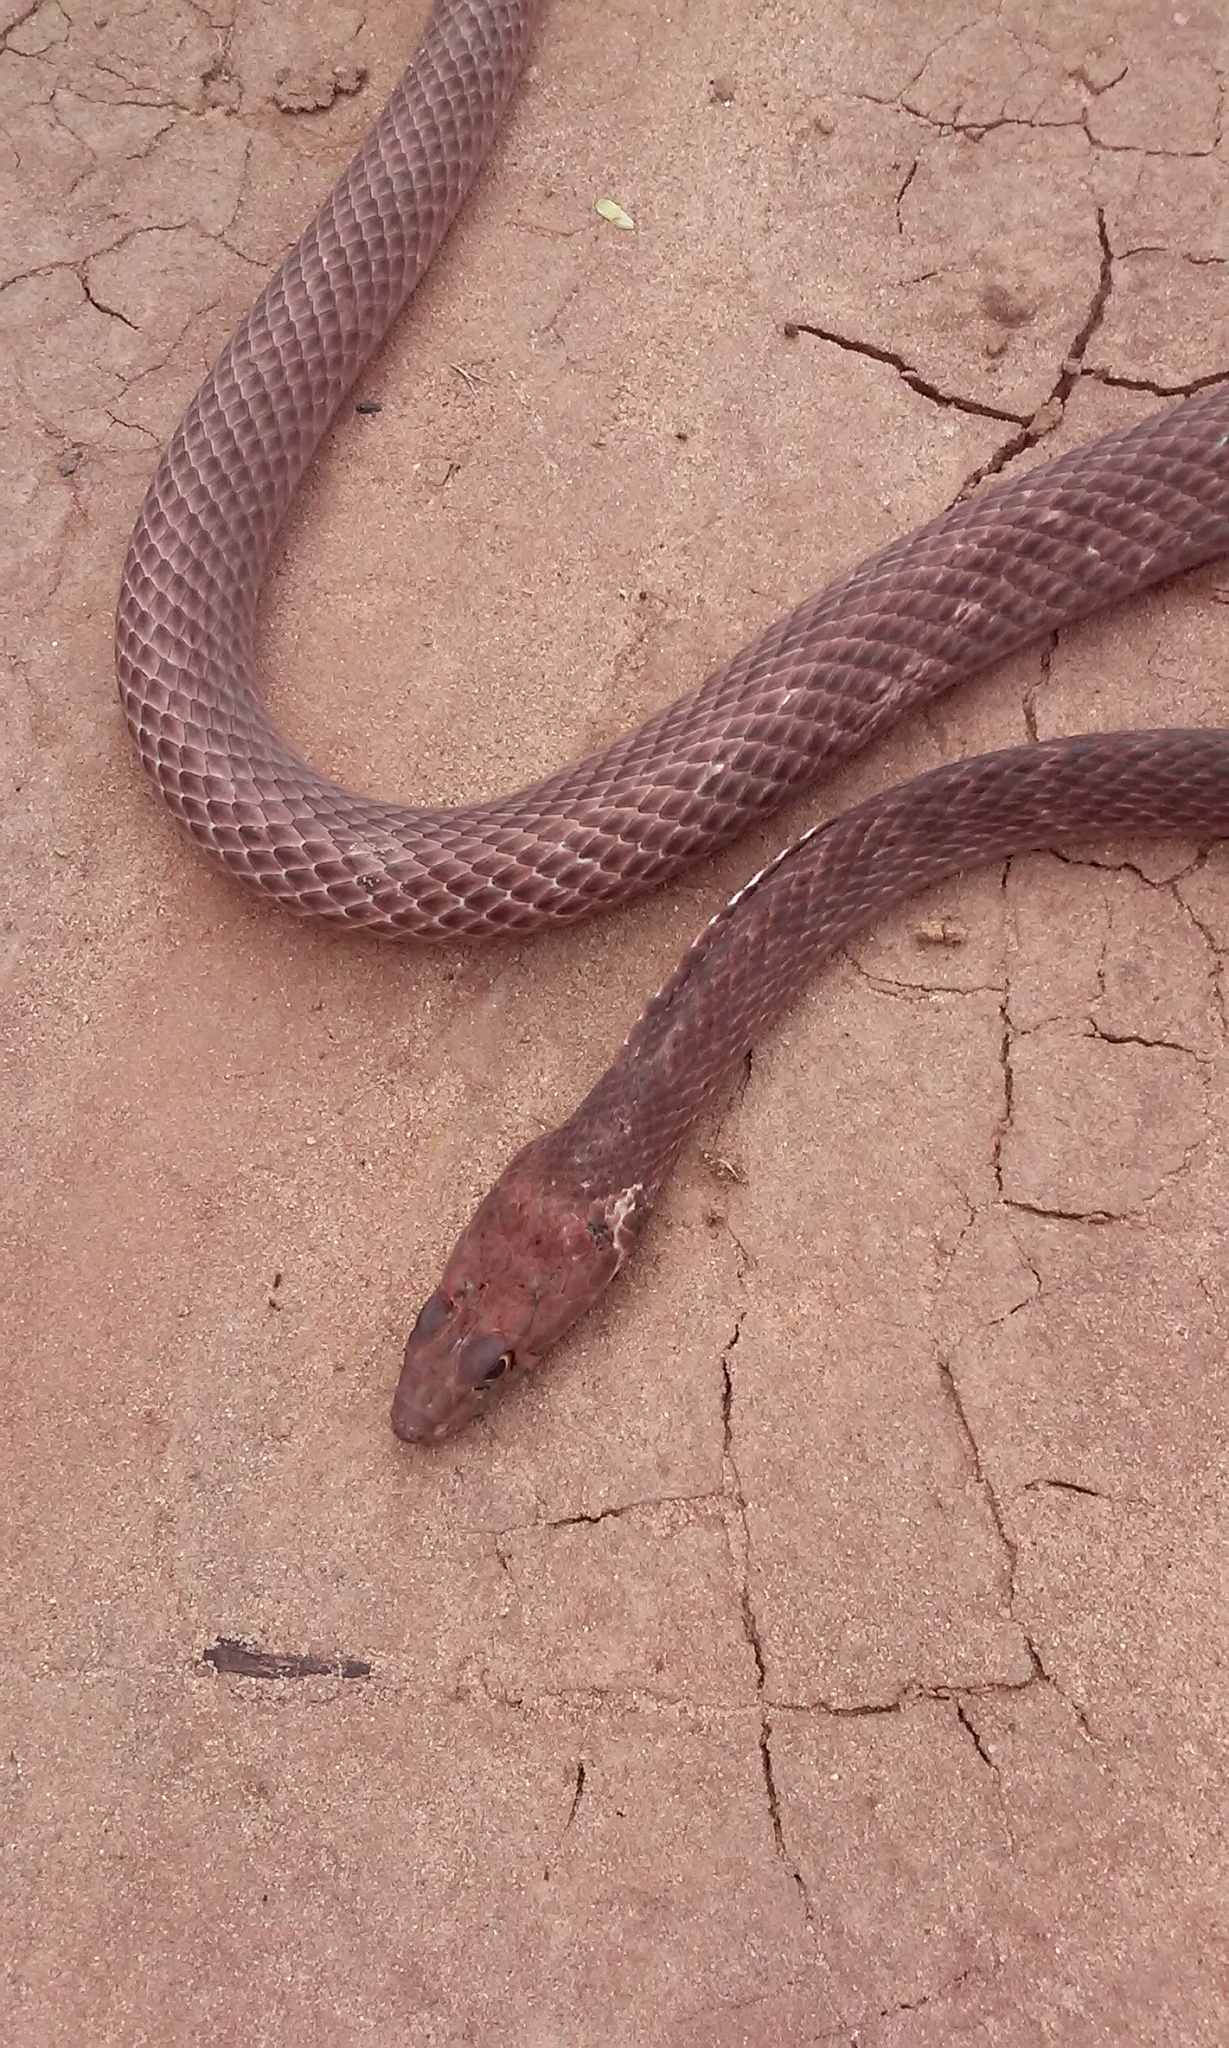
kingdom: Animalia
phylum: Chordata
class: Squamata
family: Colubridae
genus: Masticophis
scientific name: Masticophis flagellum
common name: Coachwhip
